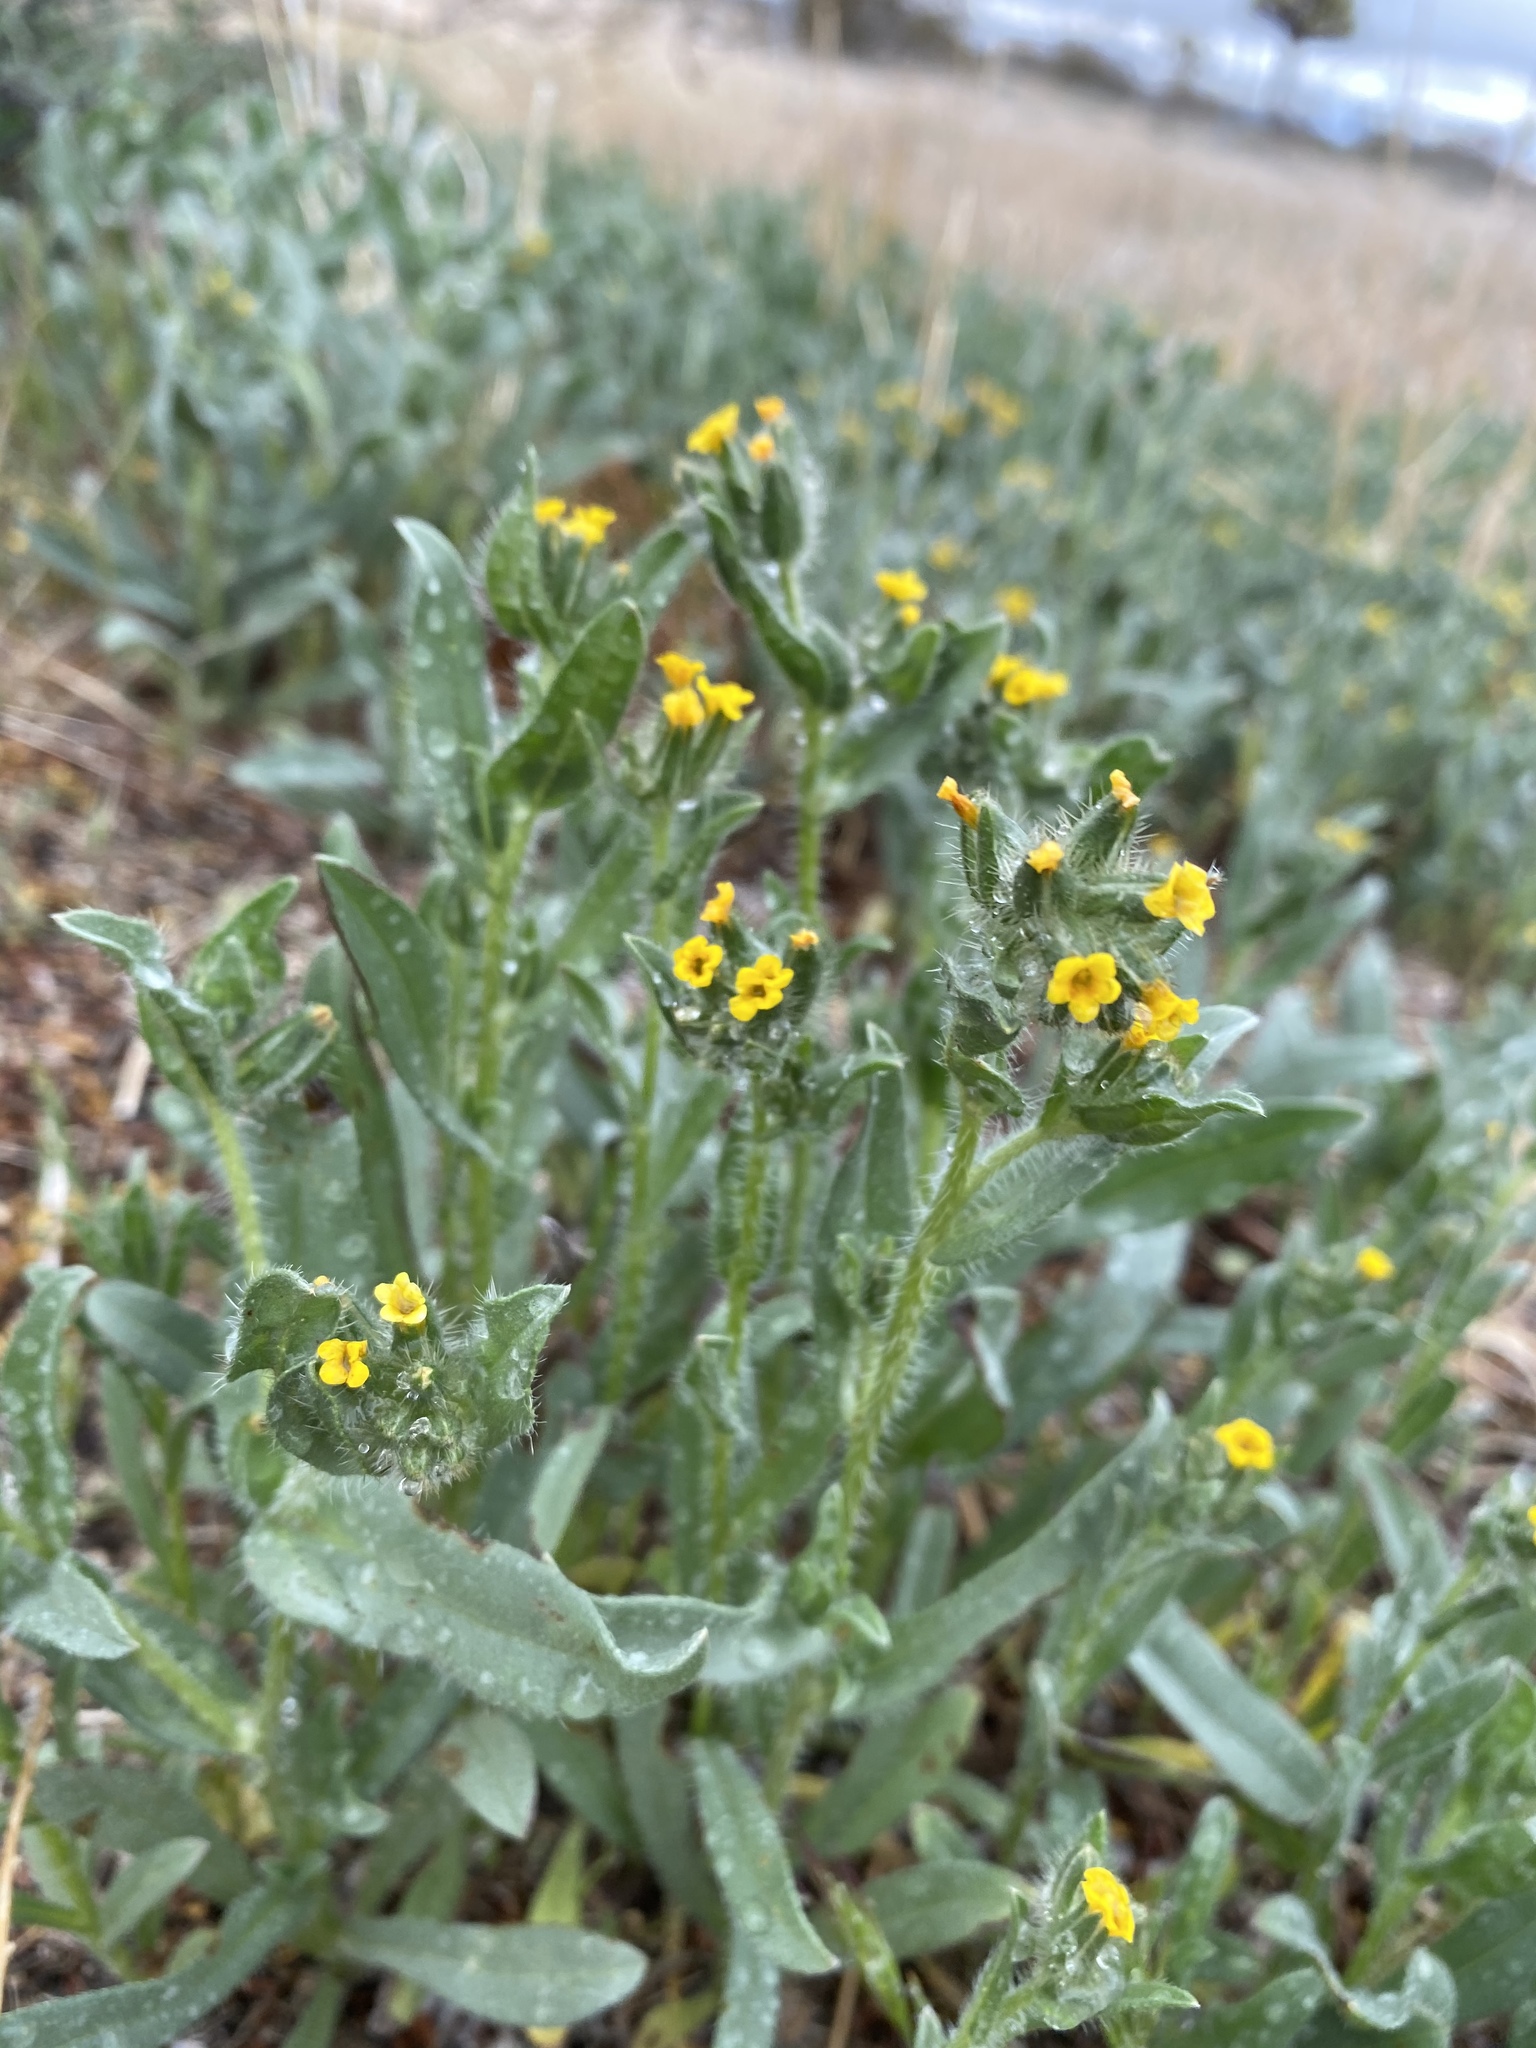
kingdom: Plantae
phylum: Tracheophyta
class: Magnoliopsida
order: Boraginales
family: Boraginaceae
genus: Amsinckia
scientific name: Amsinckia tessellata
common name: Tessellate fiddleneck
